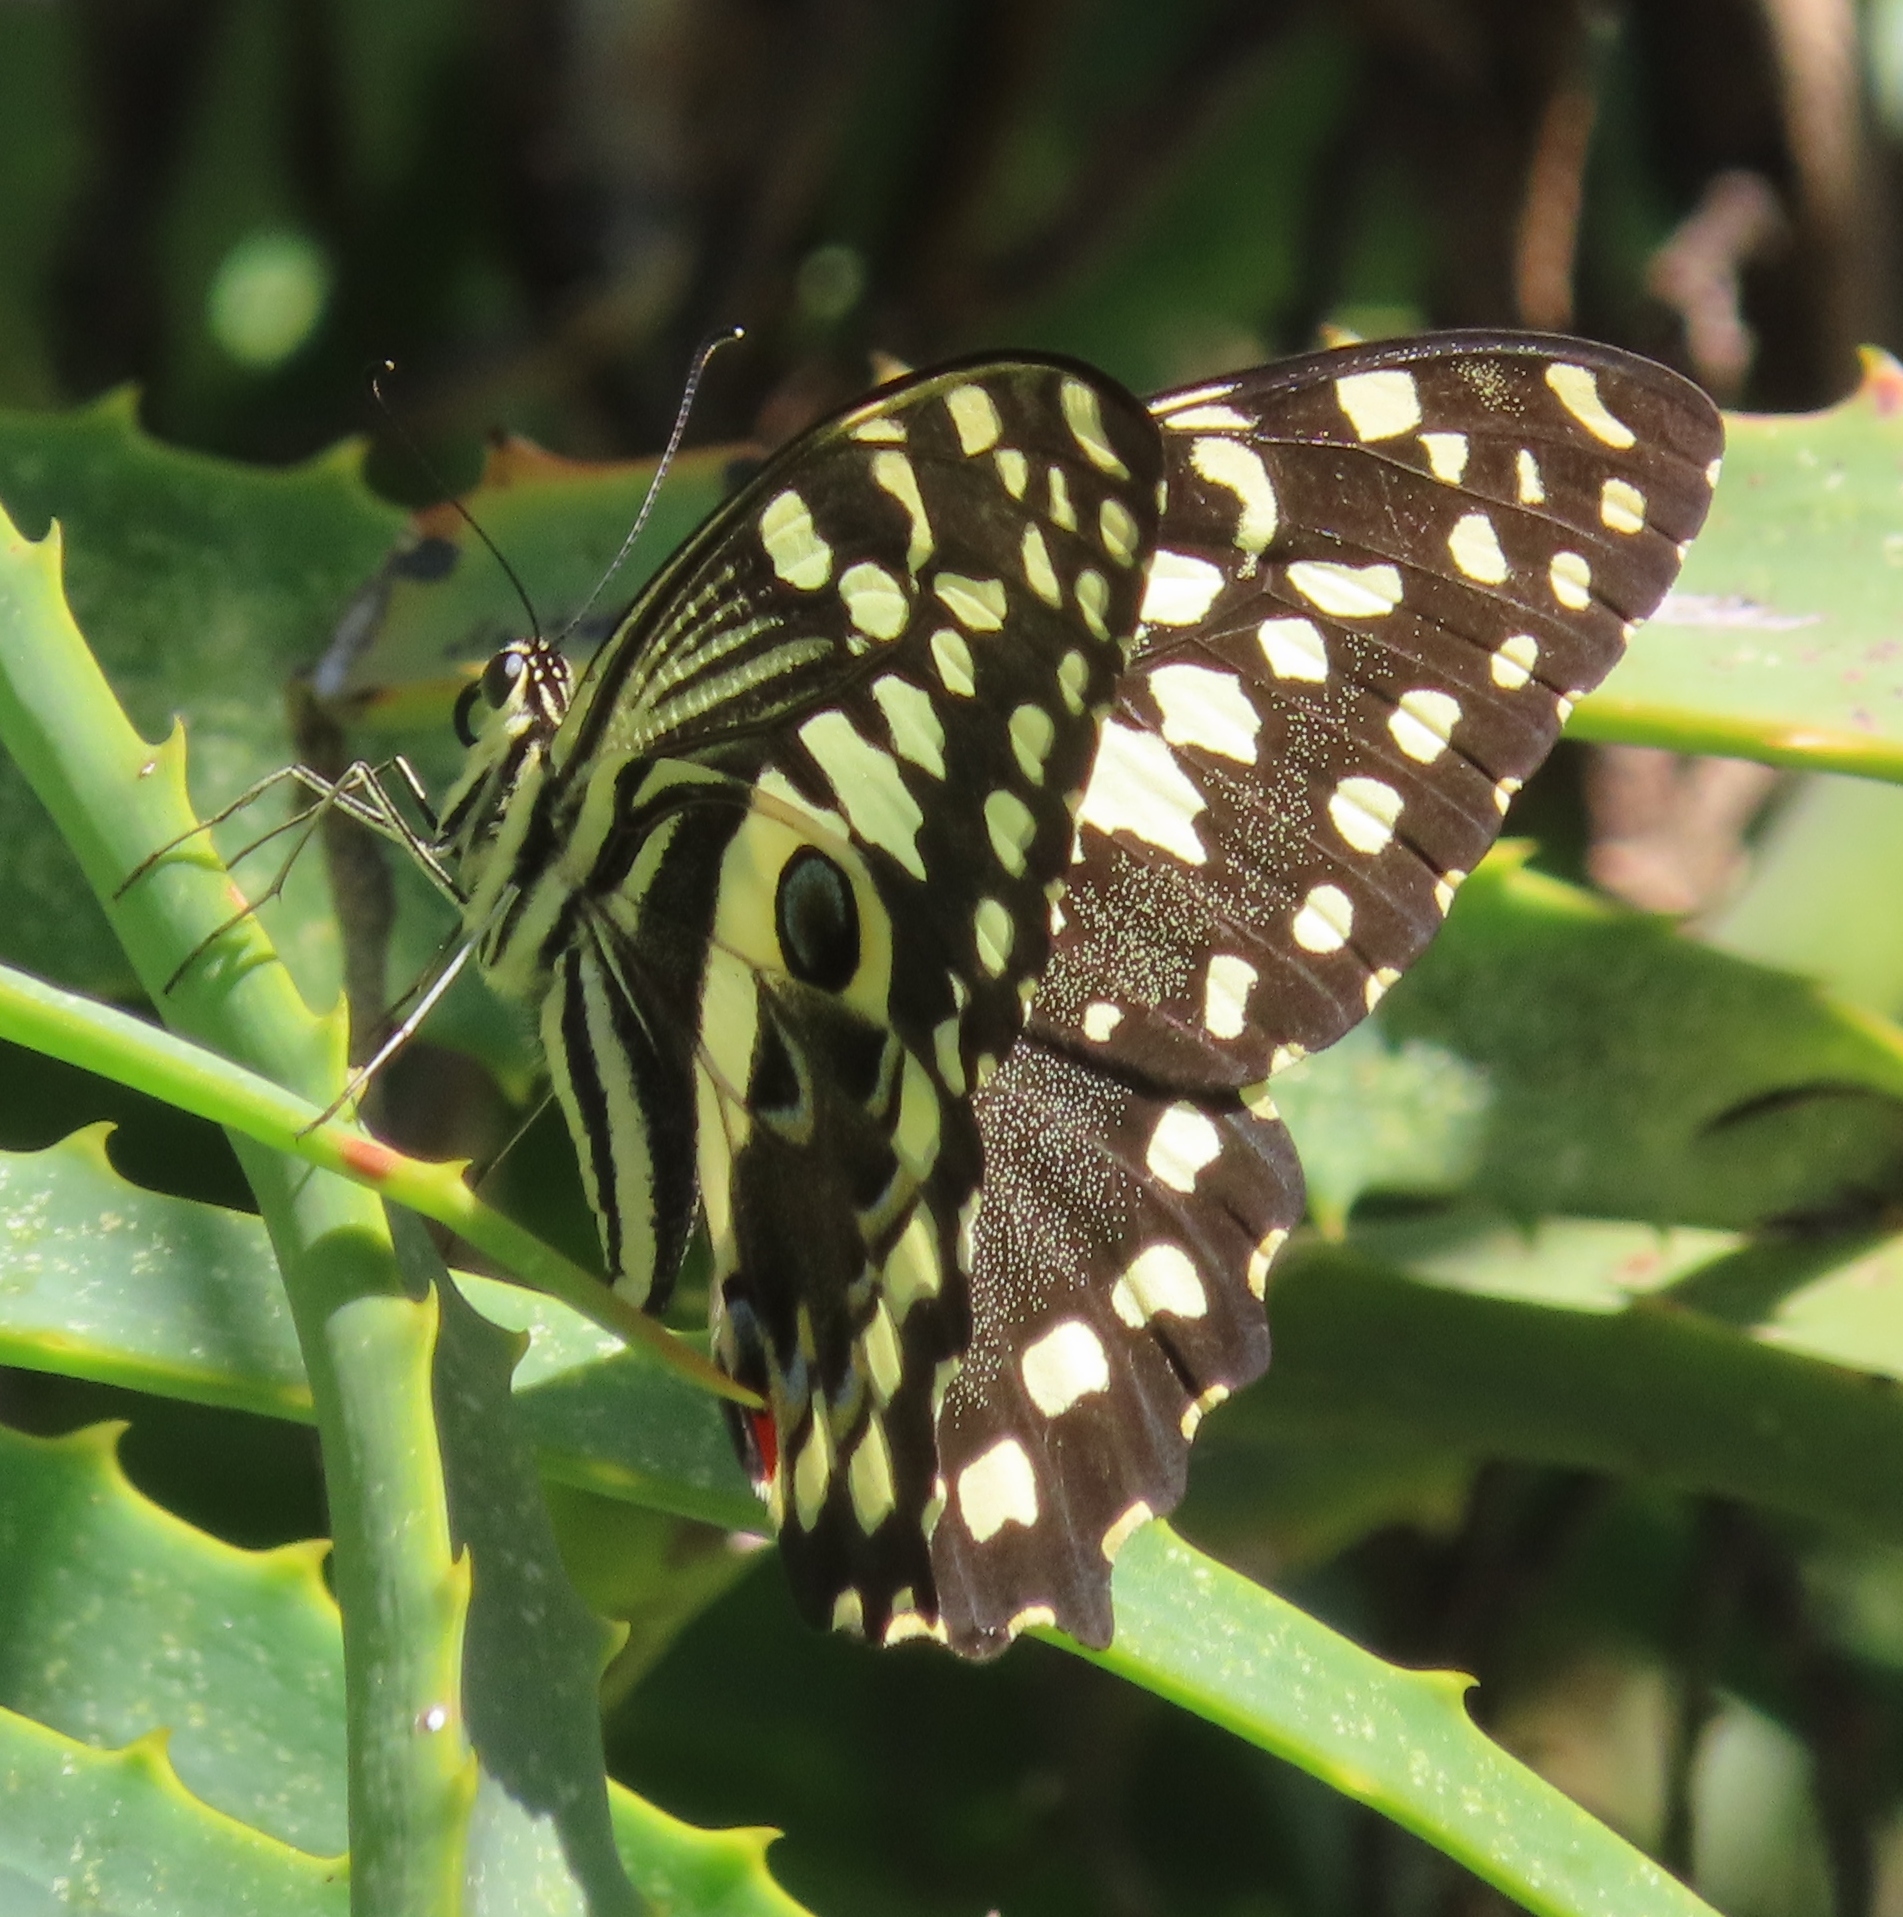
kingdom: Animalia
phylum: Arthropoda
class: Insecta
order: Lepidoptera
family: Papilionidae
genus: Papilio
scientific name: Papilio demodocus
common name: Christmas butterfly
